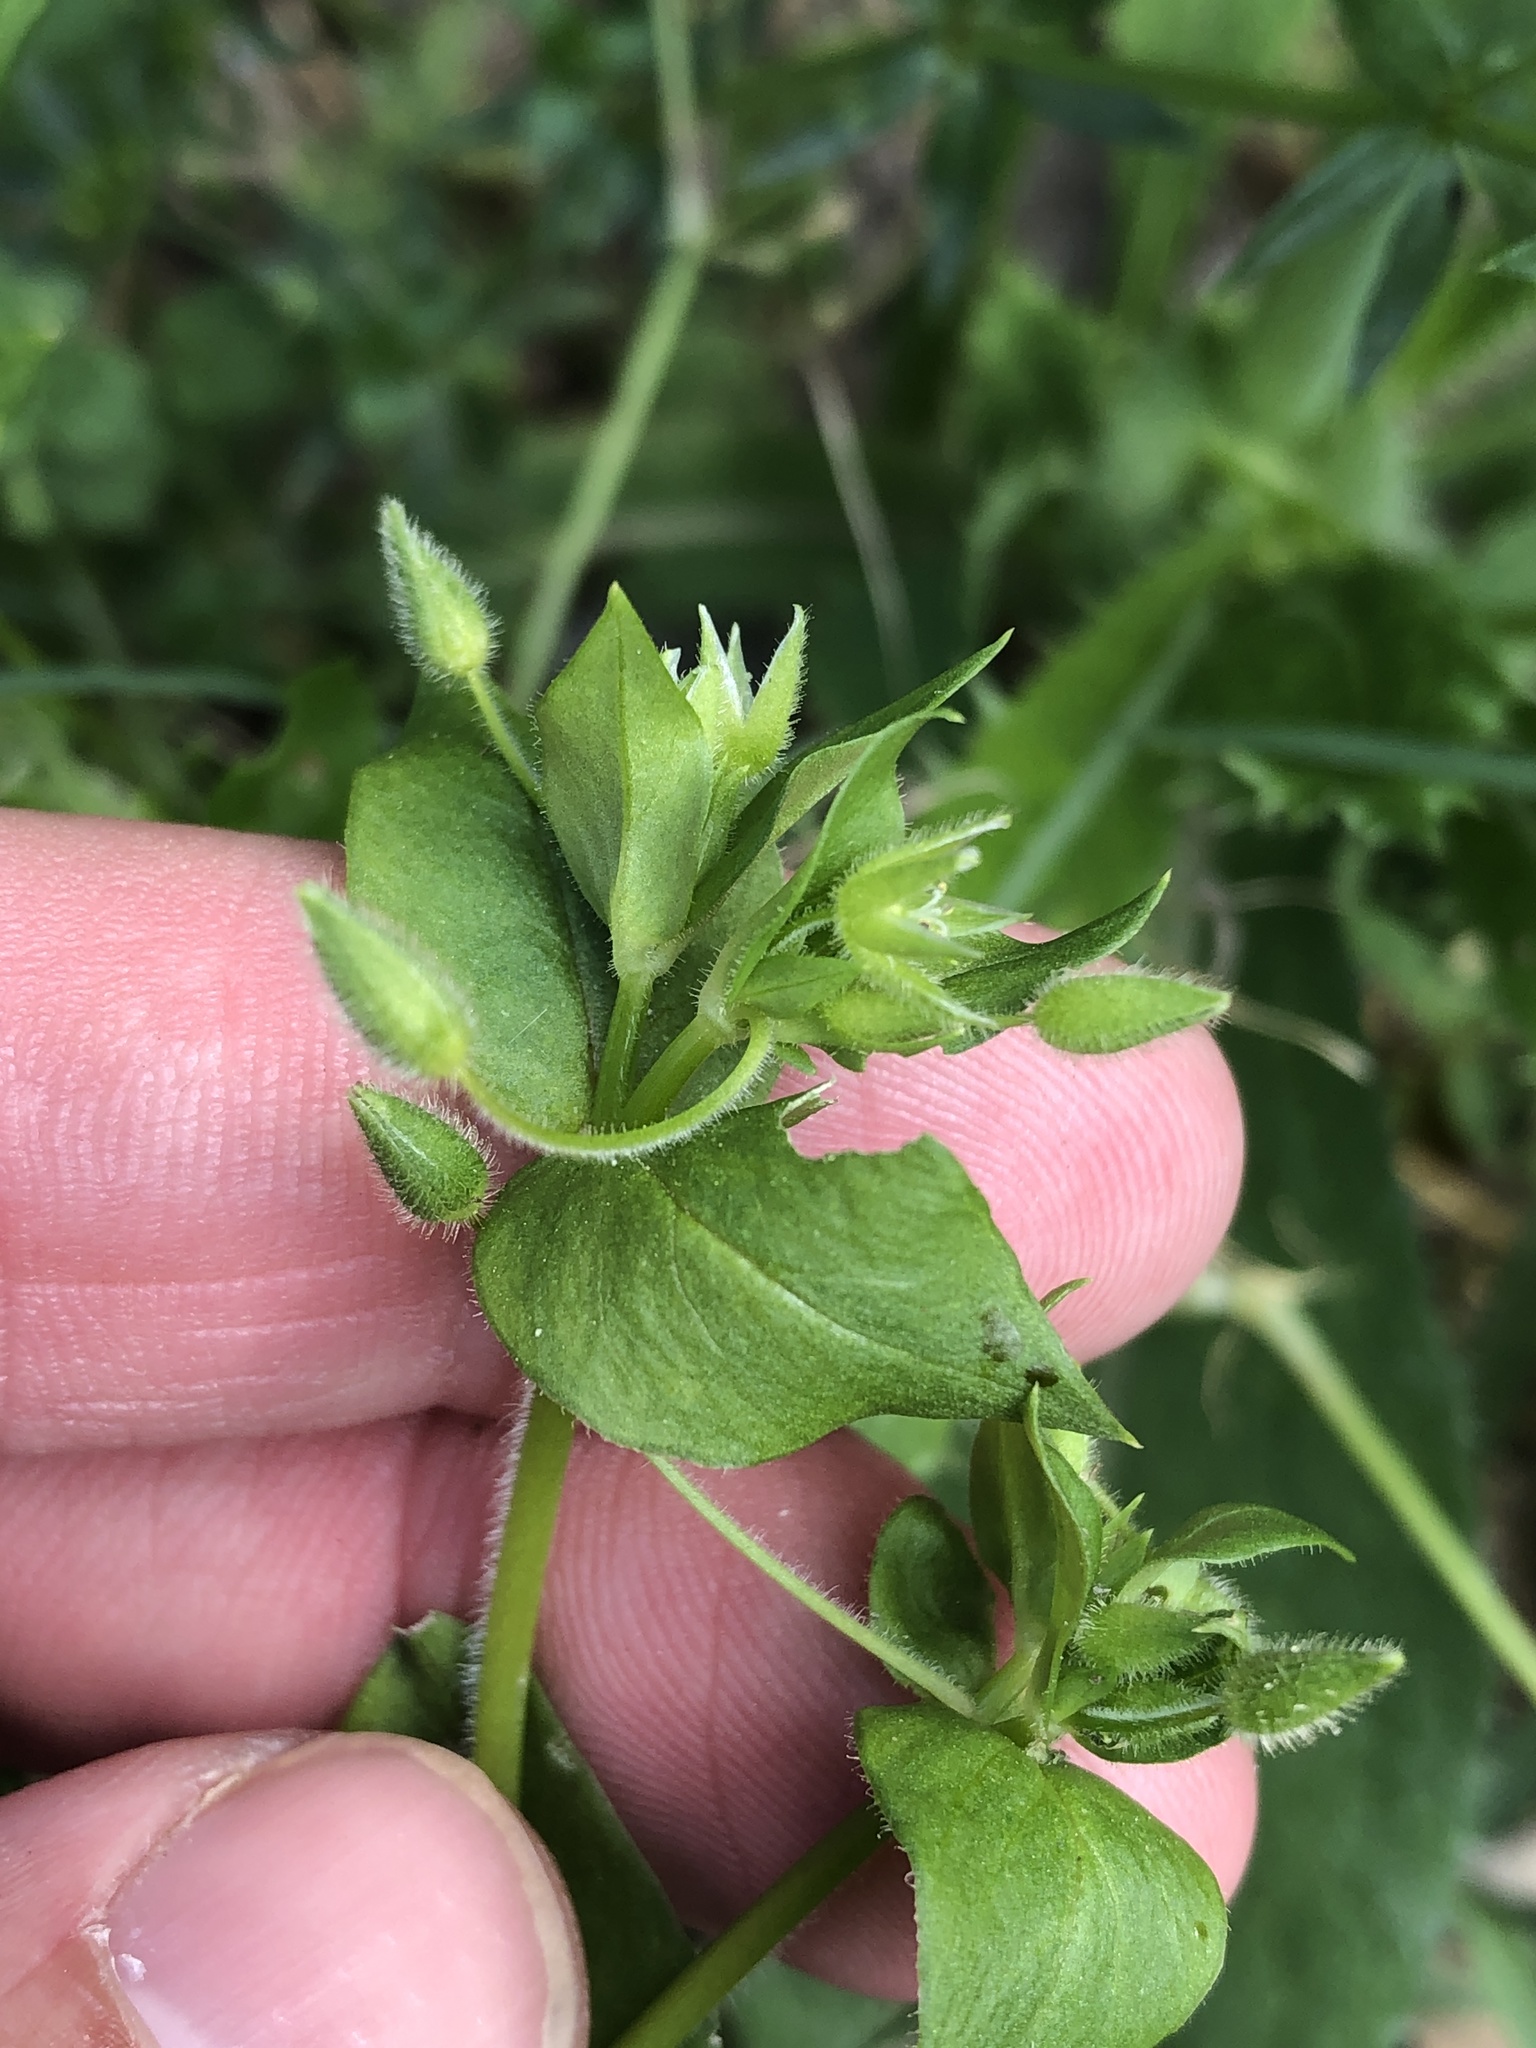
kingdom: Plantae
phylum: Tracheophyta
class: Magnoliopsida
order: Caryophyllales
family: Caryophyllaceae
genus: Stellaria
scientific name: Stellaria media
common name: Common chickweed
